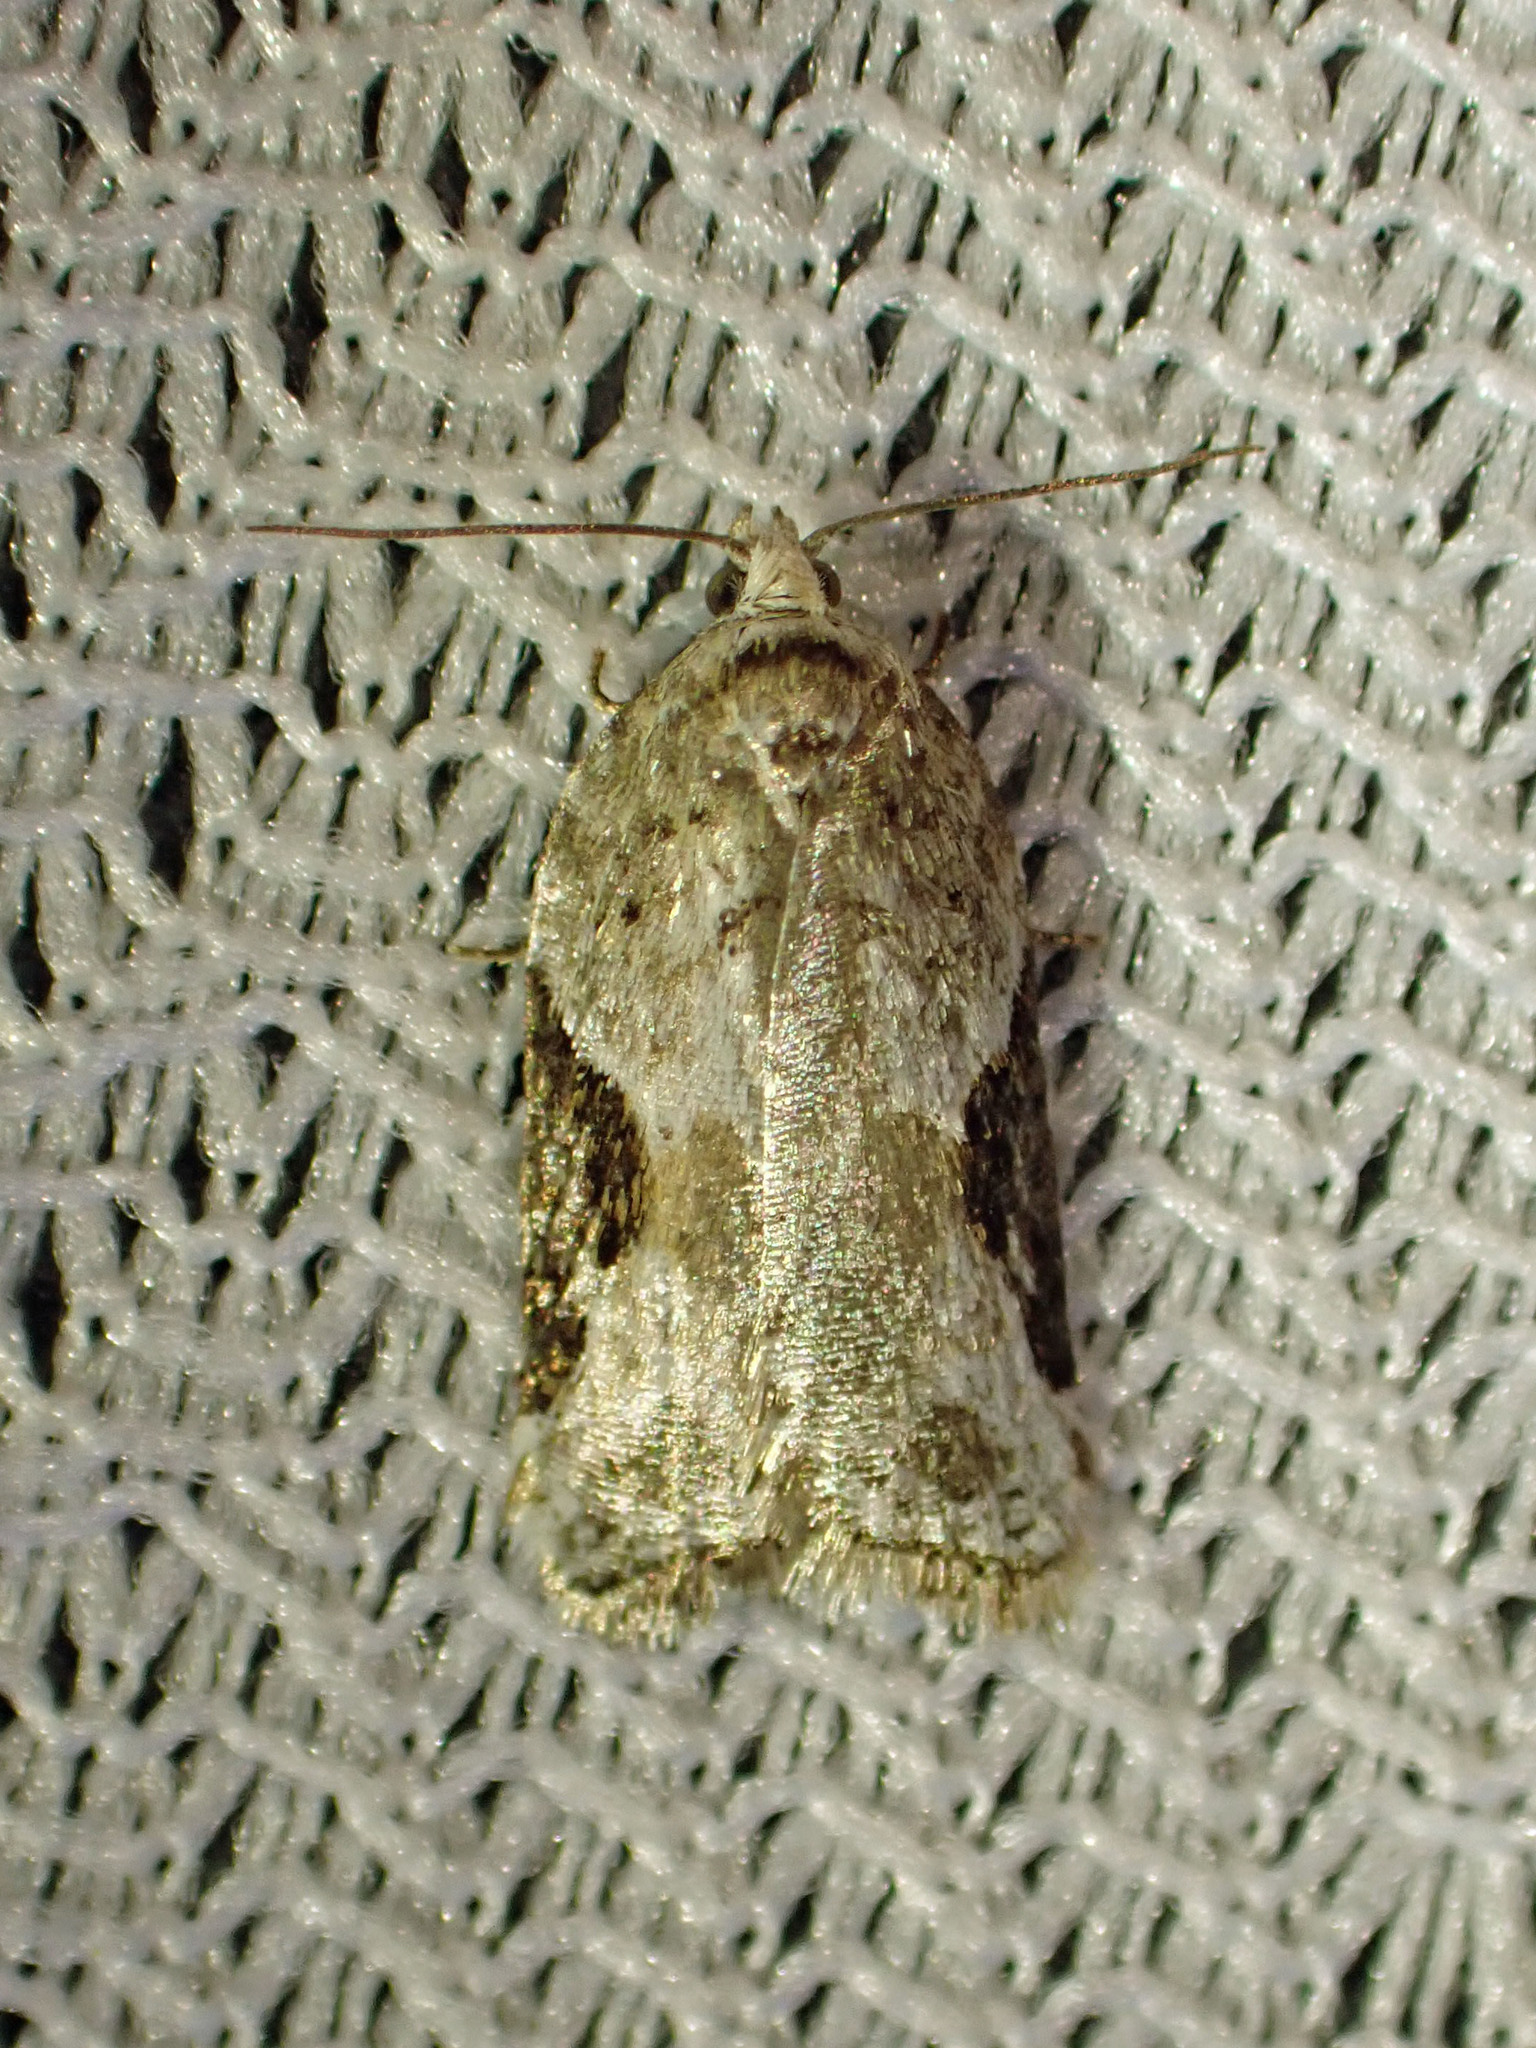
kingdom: Animalia
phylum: Arthropoda
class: Insecta
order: Lepidoptera
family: Tortricidae
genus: Acleris
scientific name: Acleris forbesana
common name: Forbes' acleris moth
